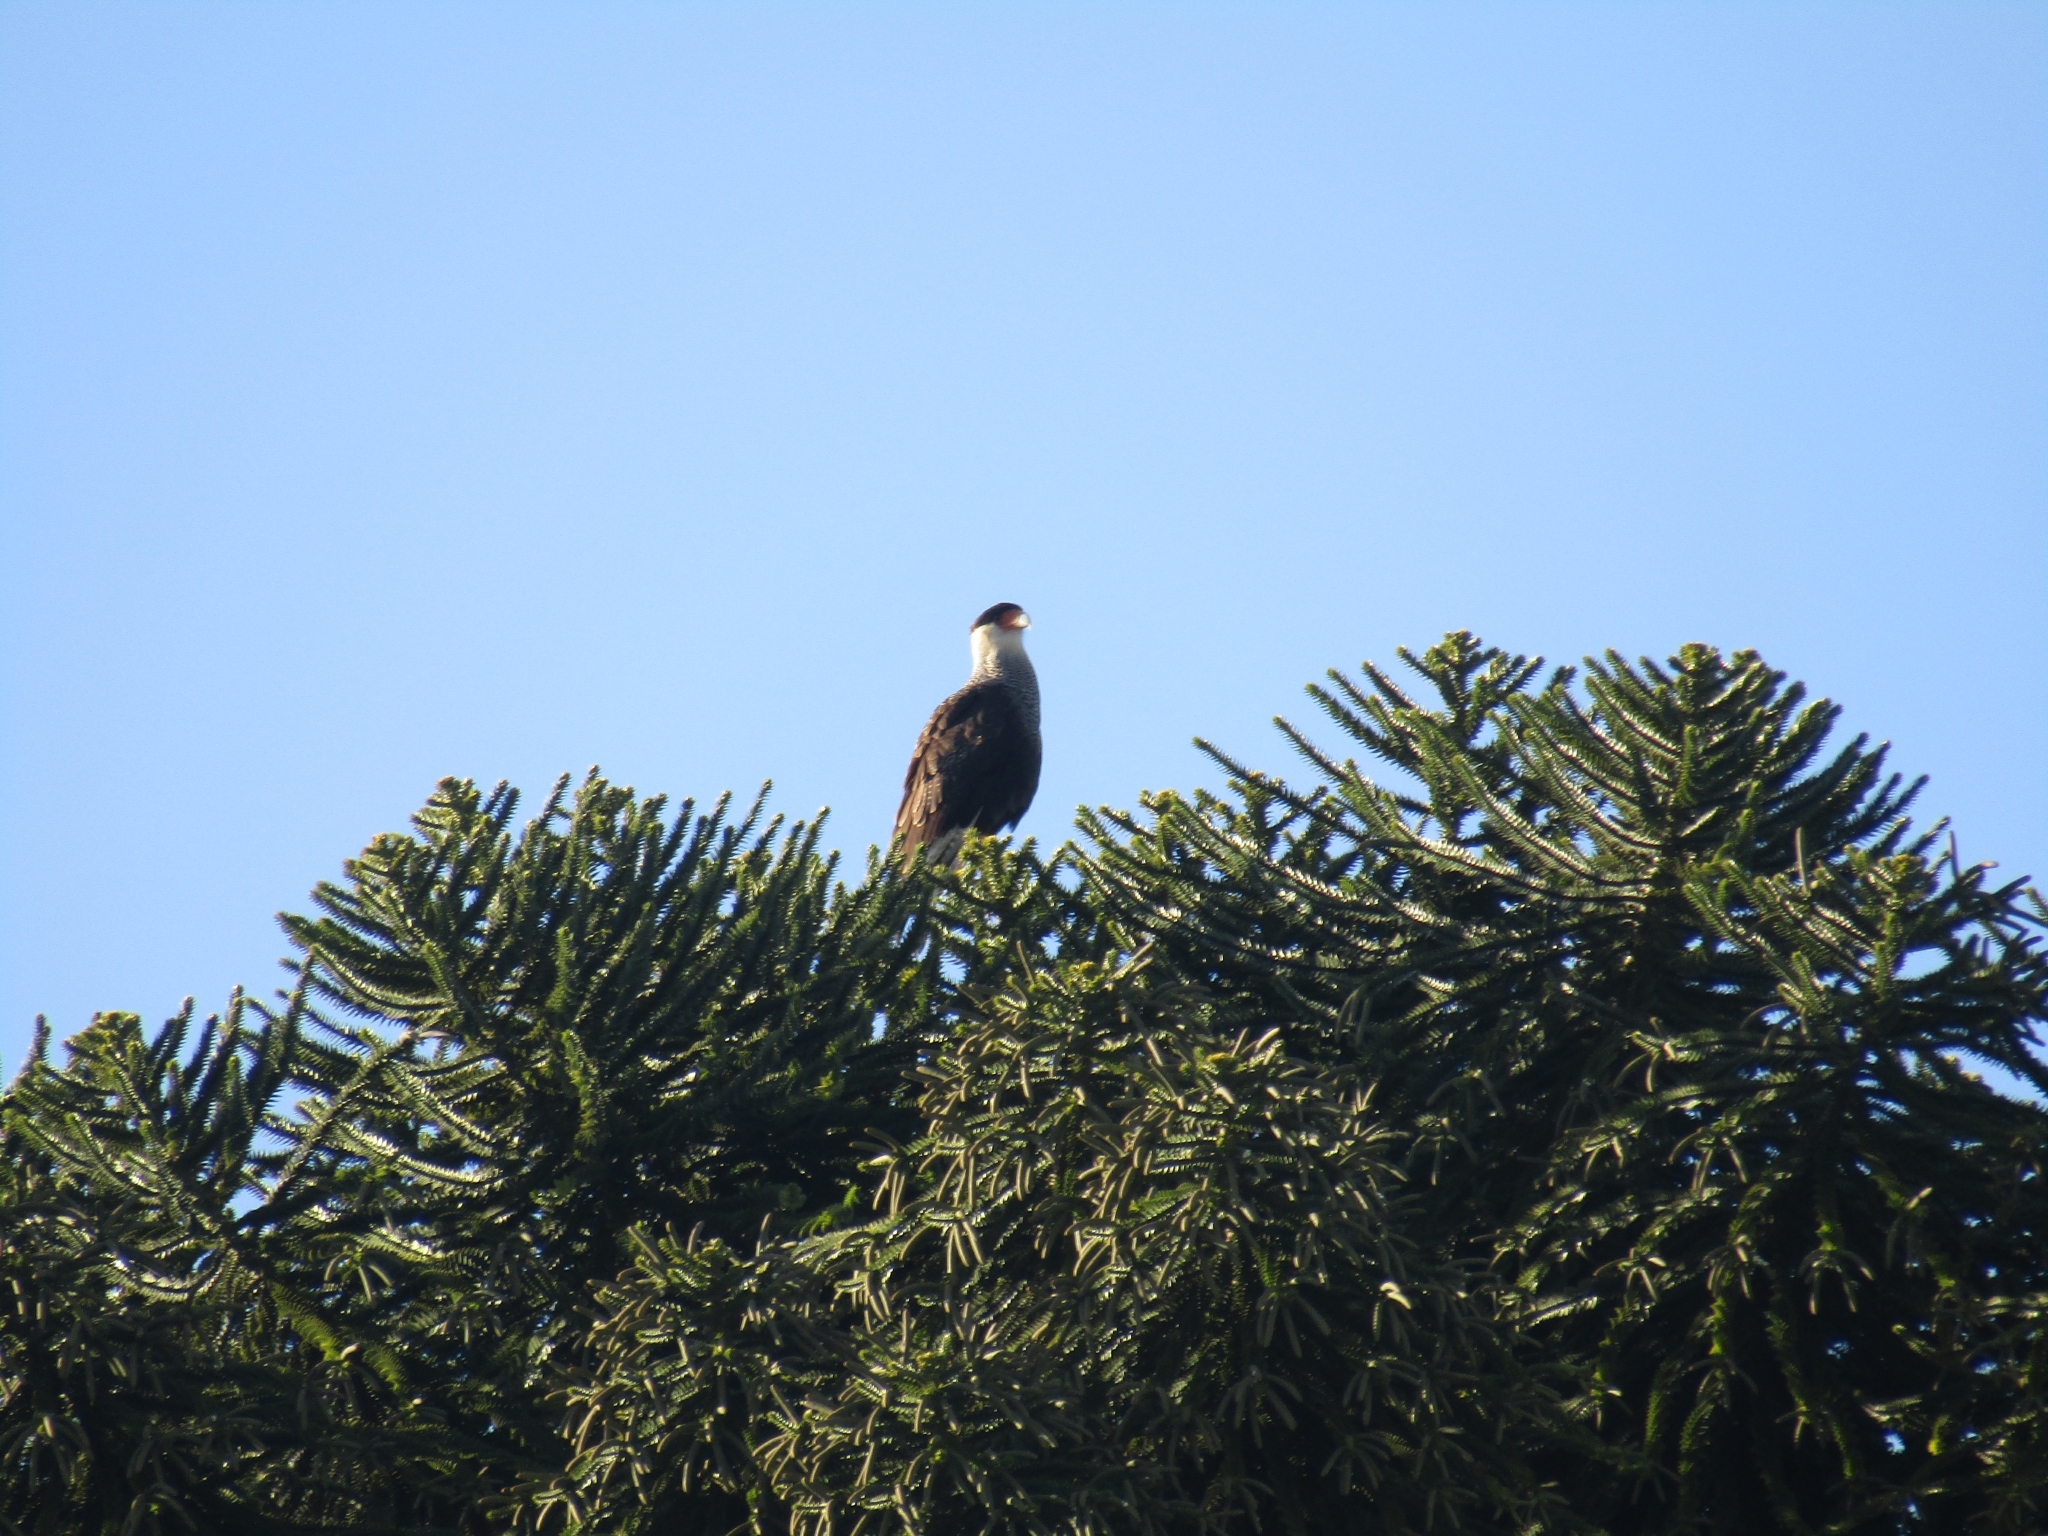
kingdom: Animalia
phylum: Chordata
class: Aves
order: Falconiformes
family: Falconidae
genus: Caracara
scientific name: Caracara plancus
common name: Southern caracara
